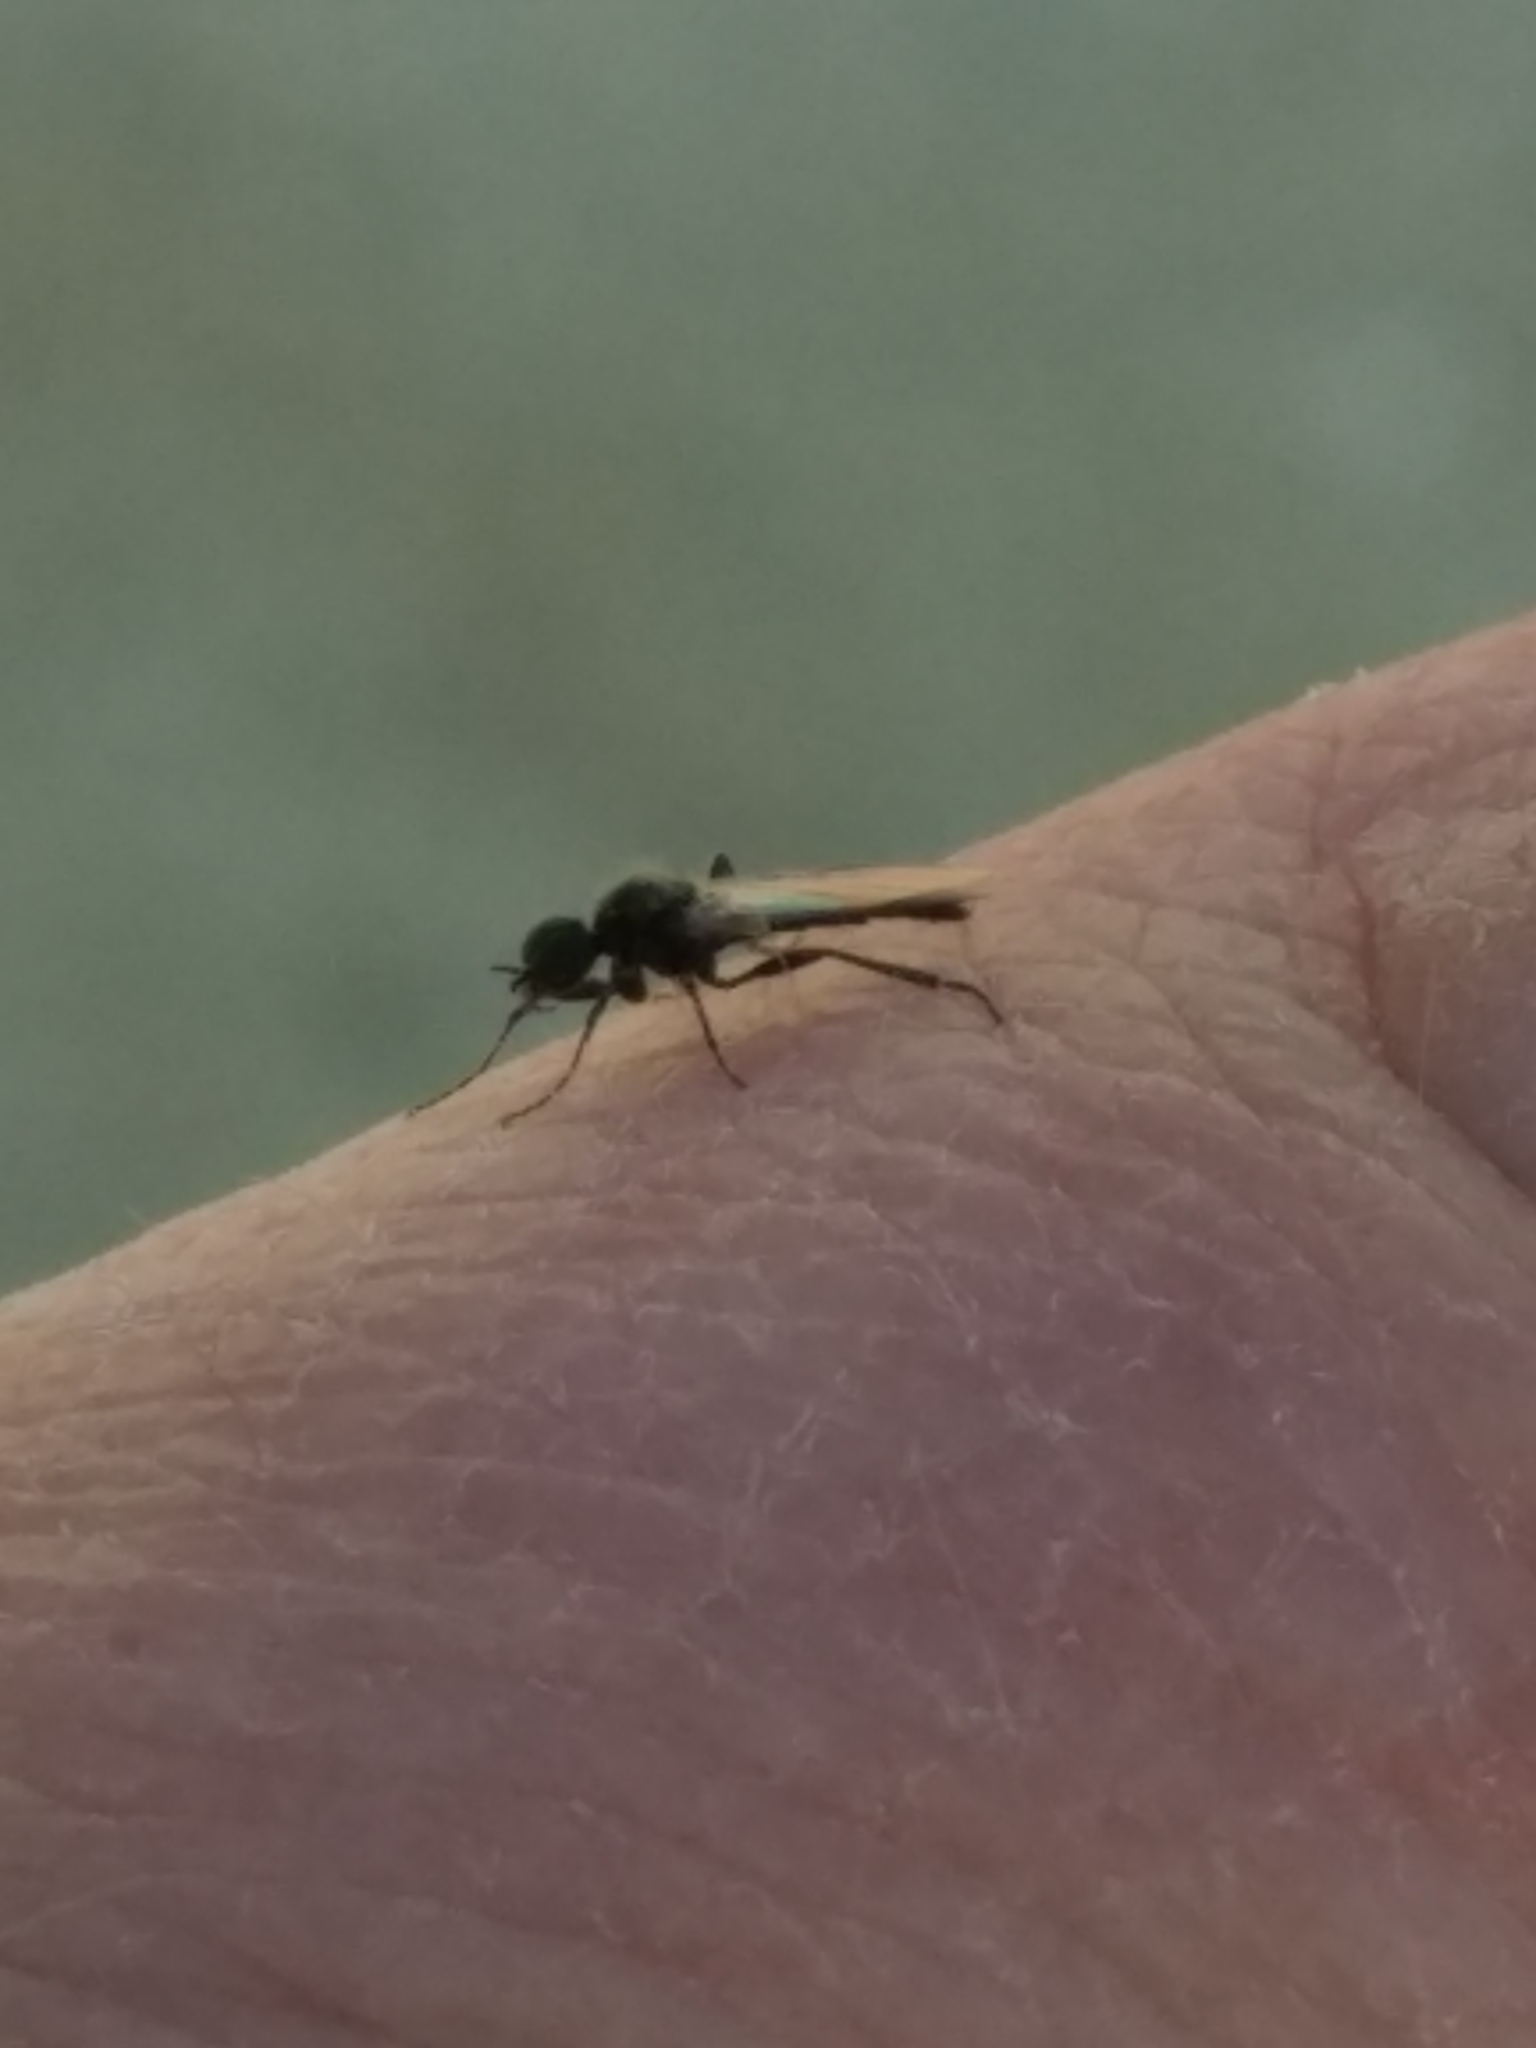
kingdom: Animalia
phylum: Arthropoda
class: Insecta
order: Diptera
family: Bibionidae
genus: Bibiodes
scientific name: Bibiodes halteralis
